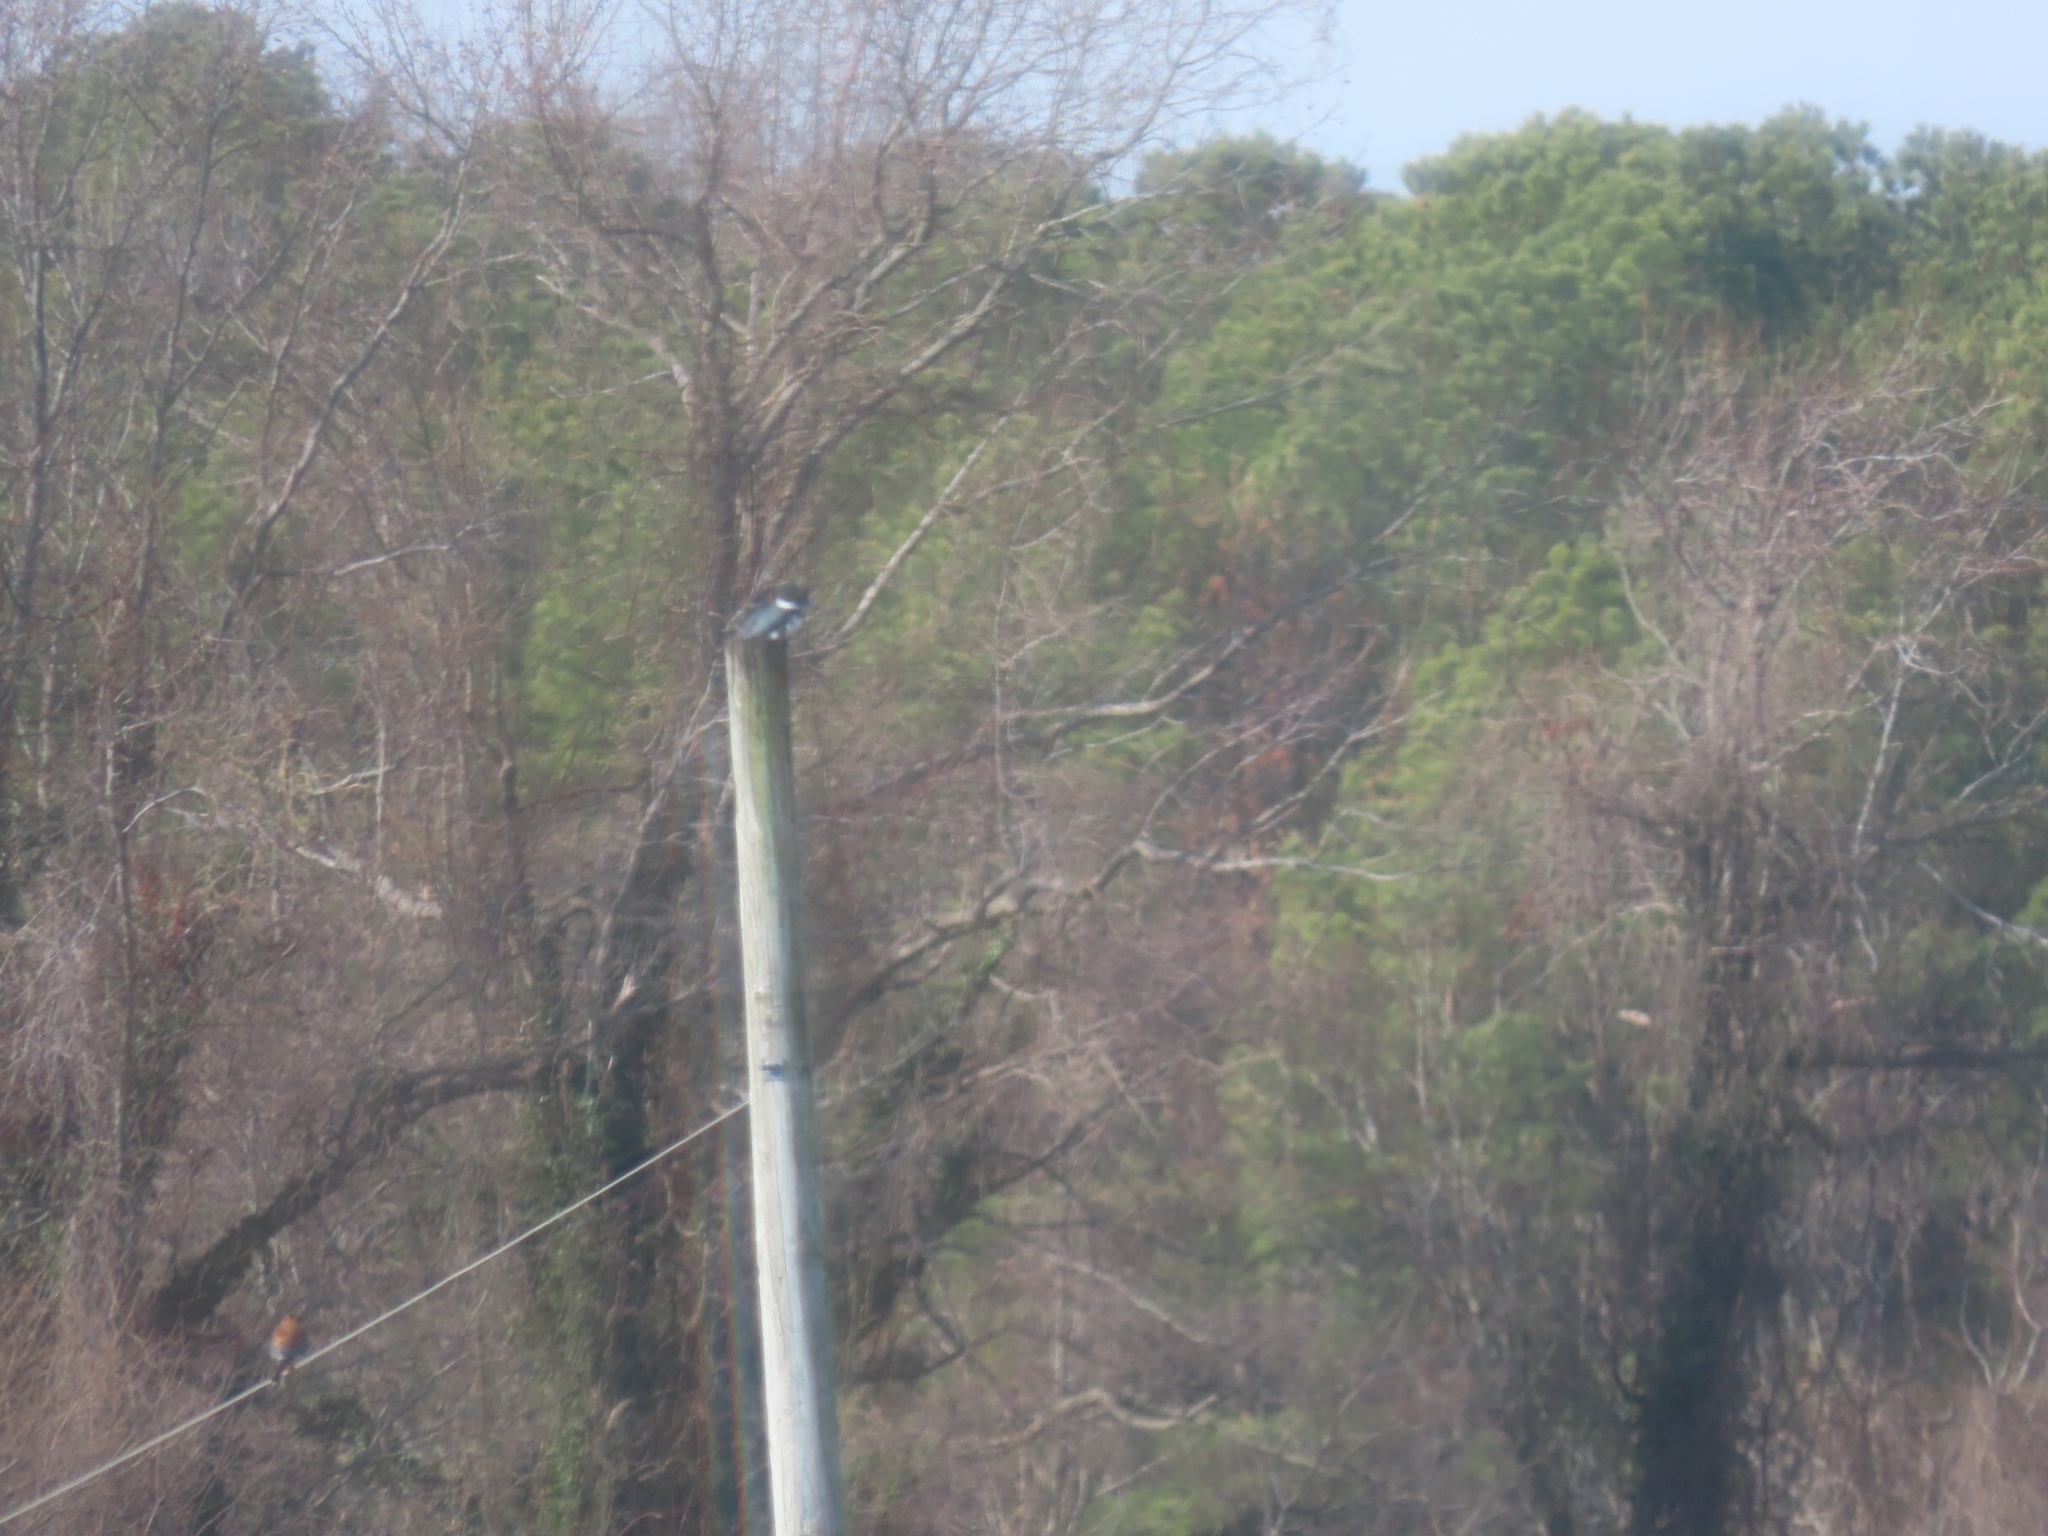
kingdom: Animalia
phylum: Chordata
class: Aves
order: Coraciiformes
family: Alcedinidae
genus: Megaceryle
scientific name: Megaceryle alcyon
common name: Belted kingfisher
